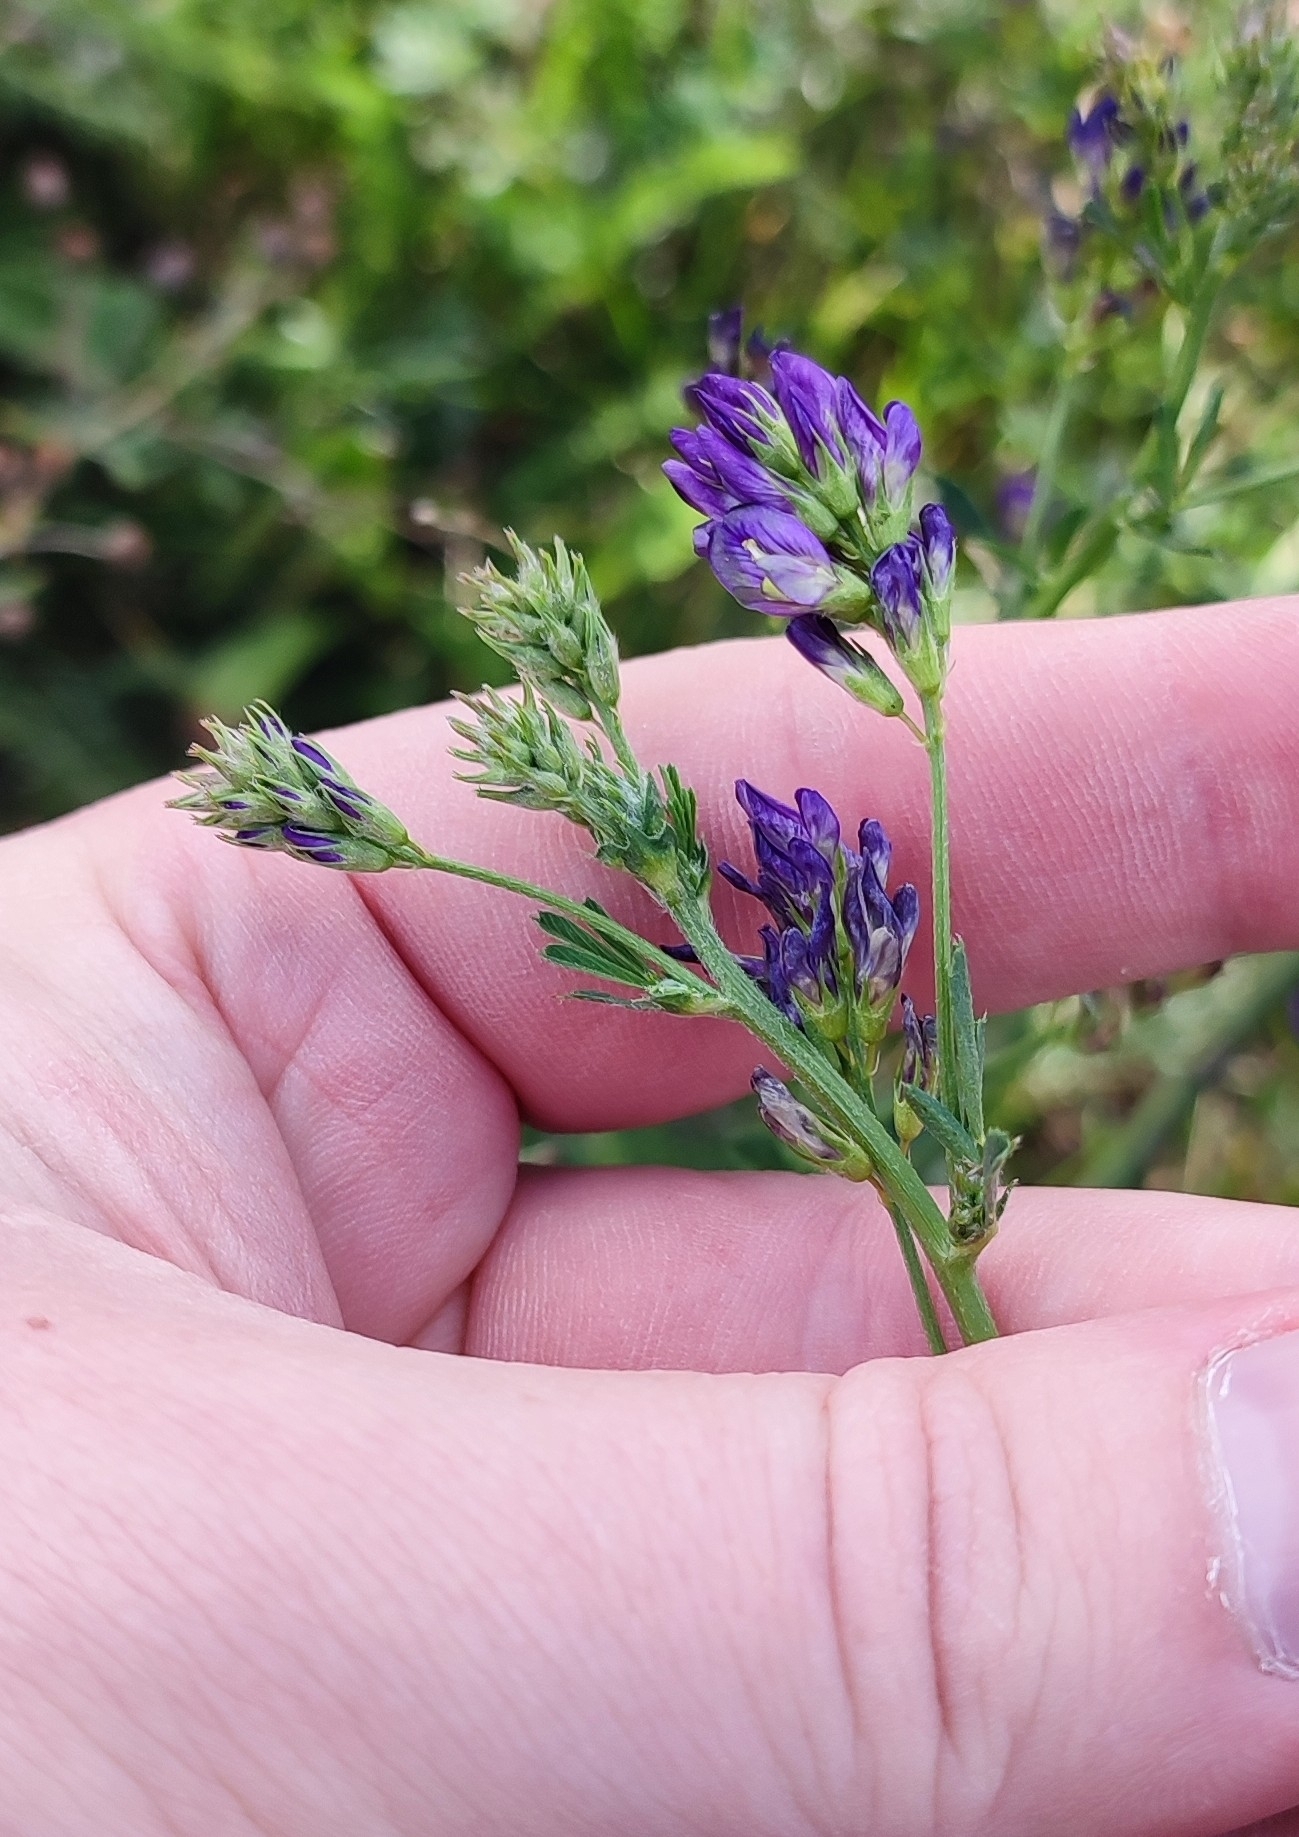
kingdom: Plantae
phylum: Tracheophyta
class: Magnoliopsida
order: Fabales
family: Fabaceae
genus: Medicago
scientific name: Medicago varia
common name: Sand lucerne
